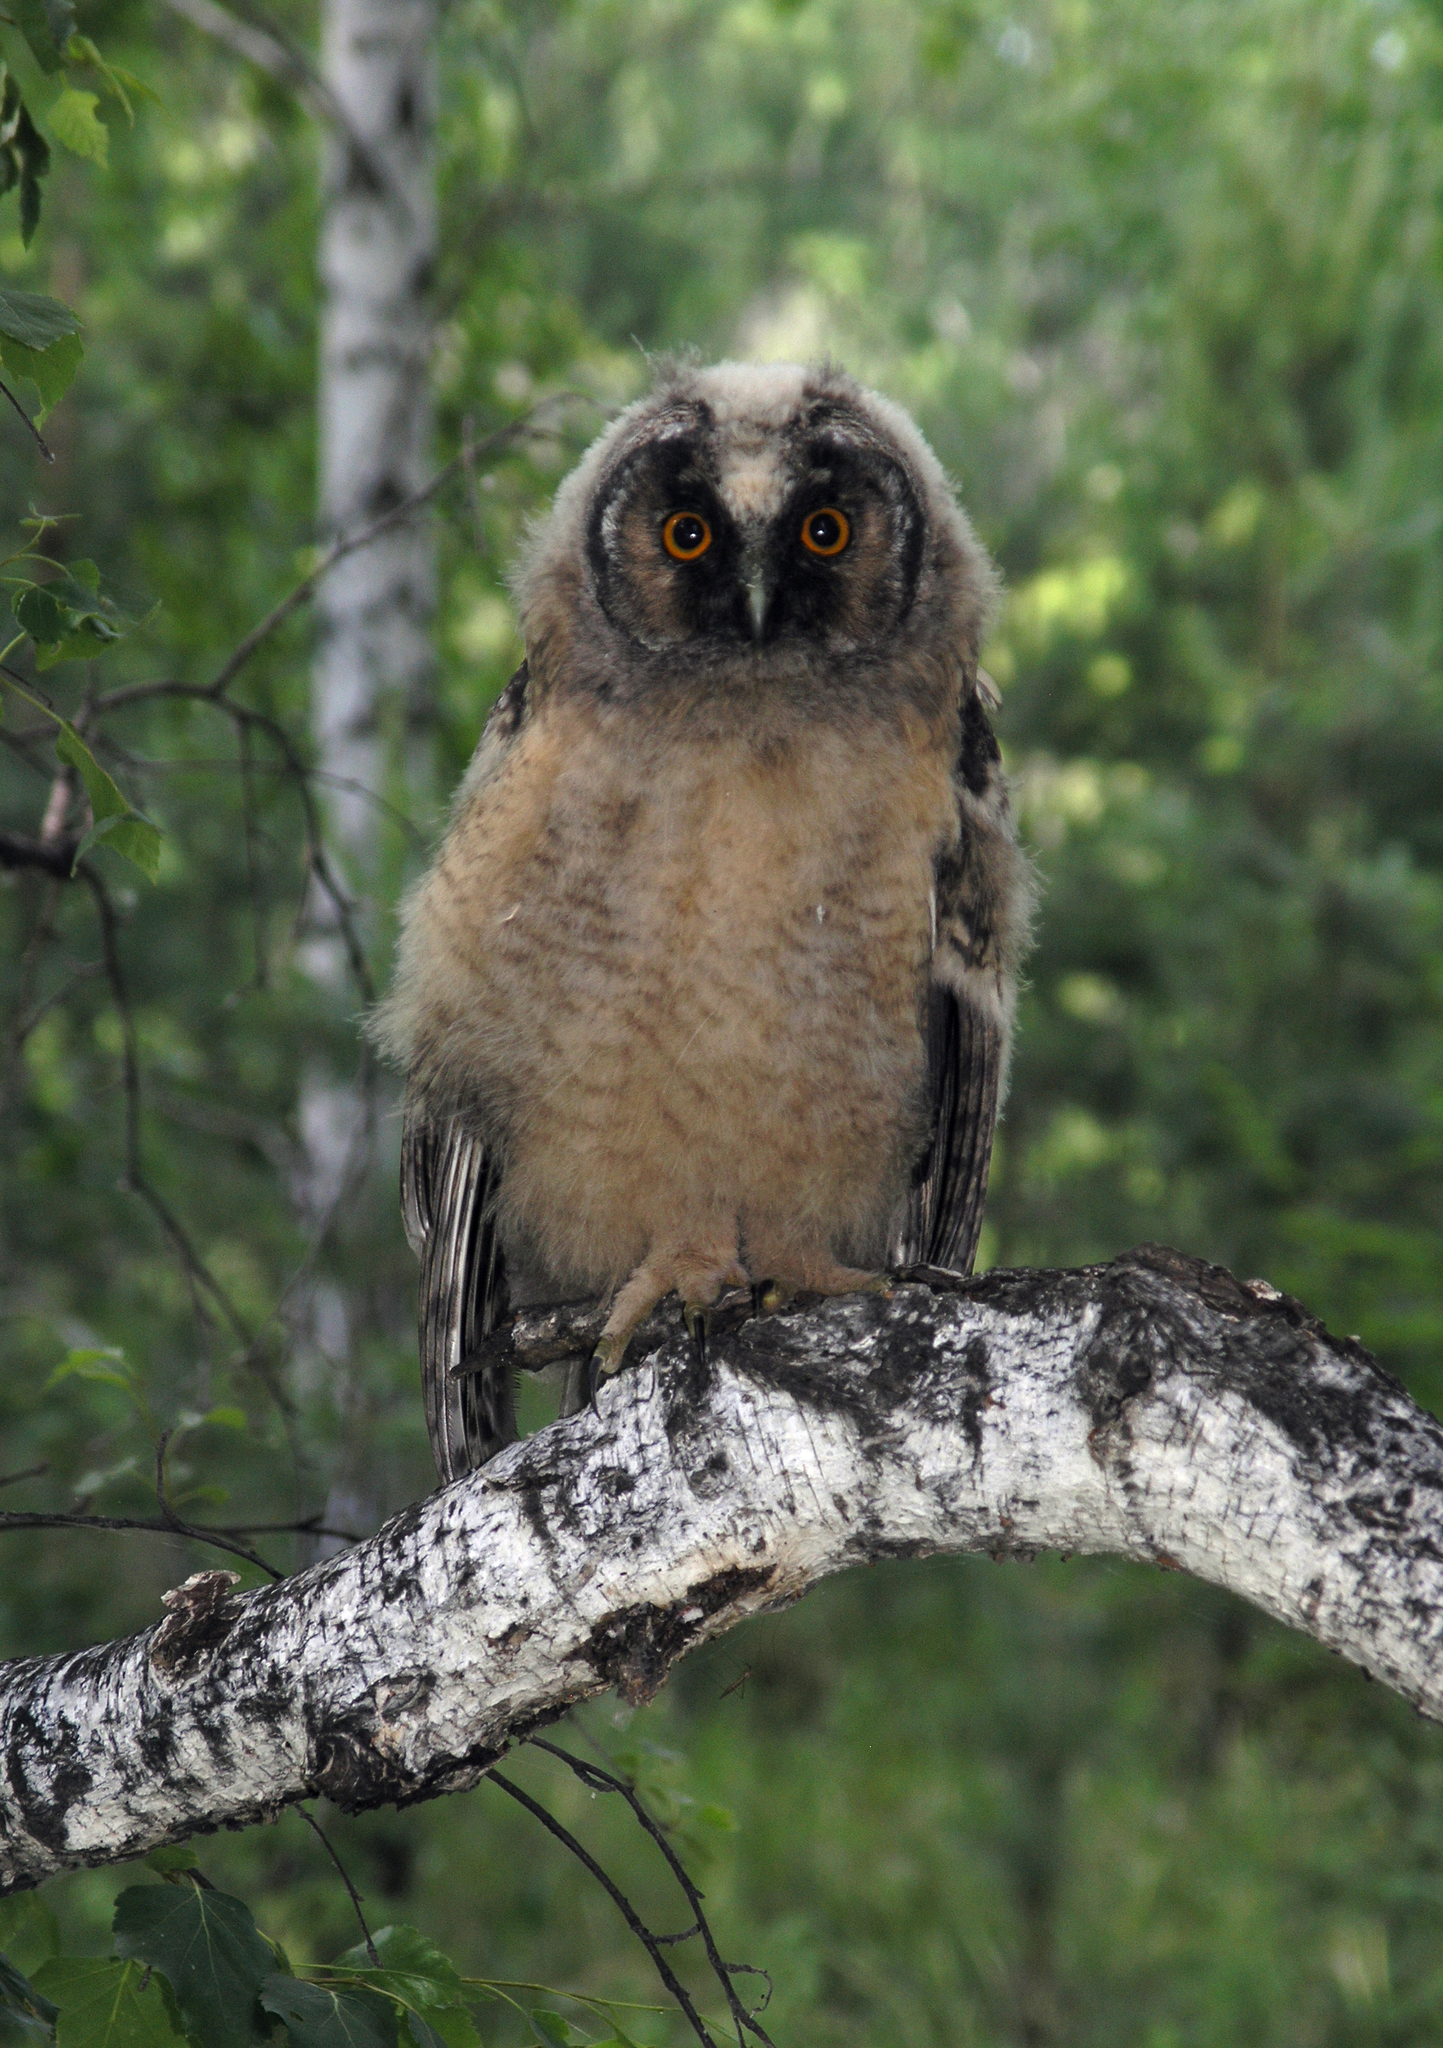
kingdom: Animalia
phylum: Chordata
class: Aves
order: Strigiformes
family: Strigidae
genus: Asio
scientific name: Asio otus
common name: Long-eared owl
